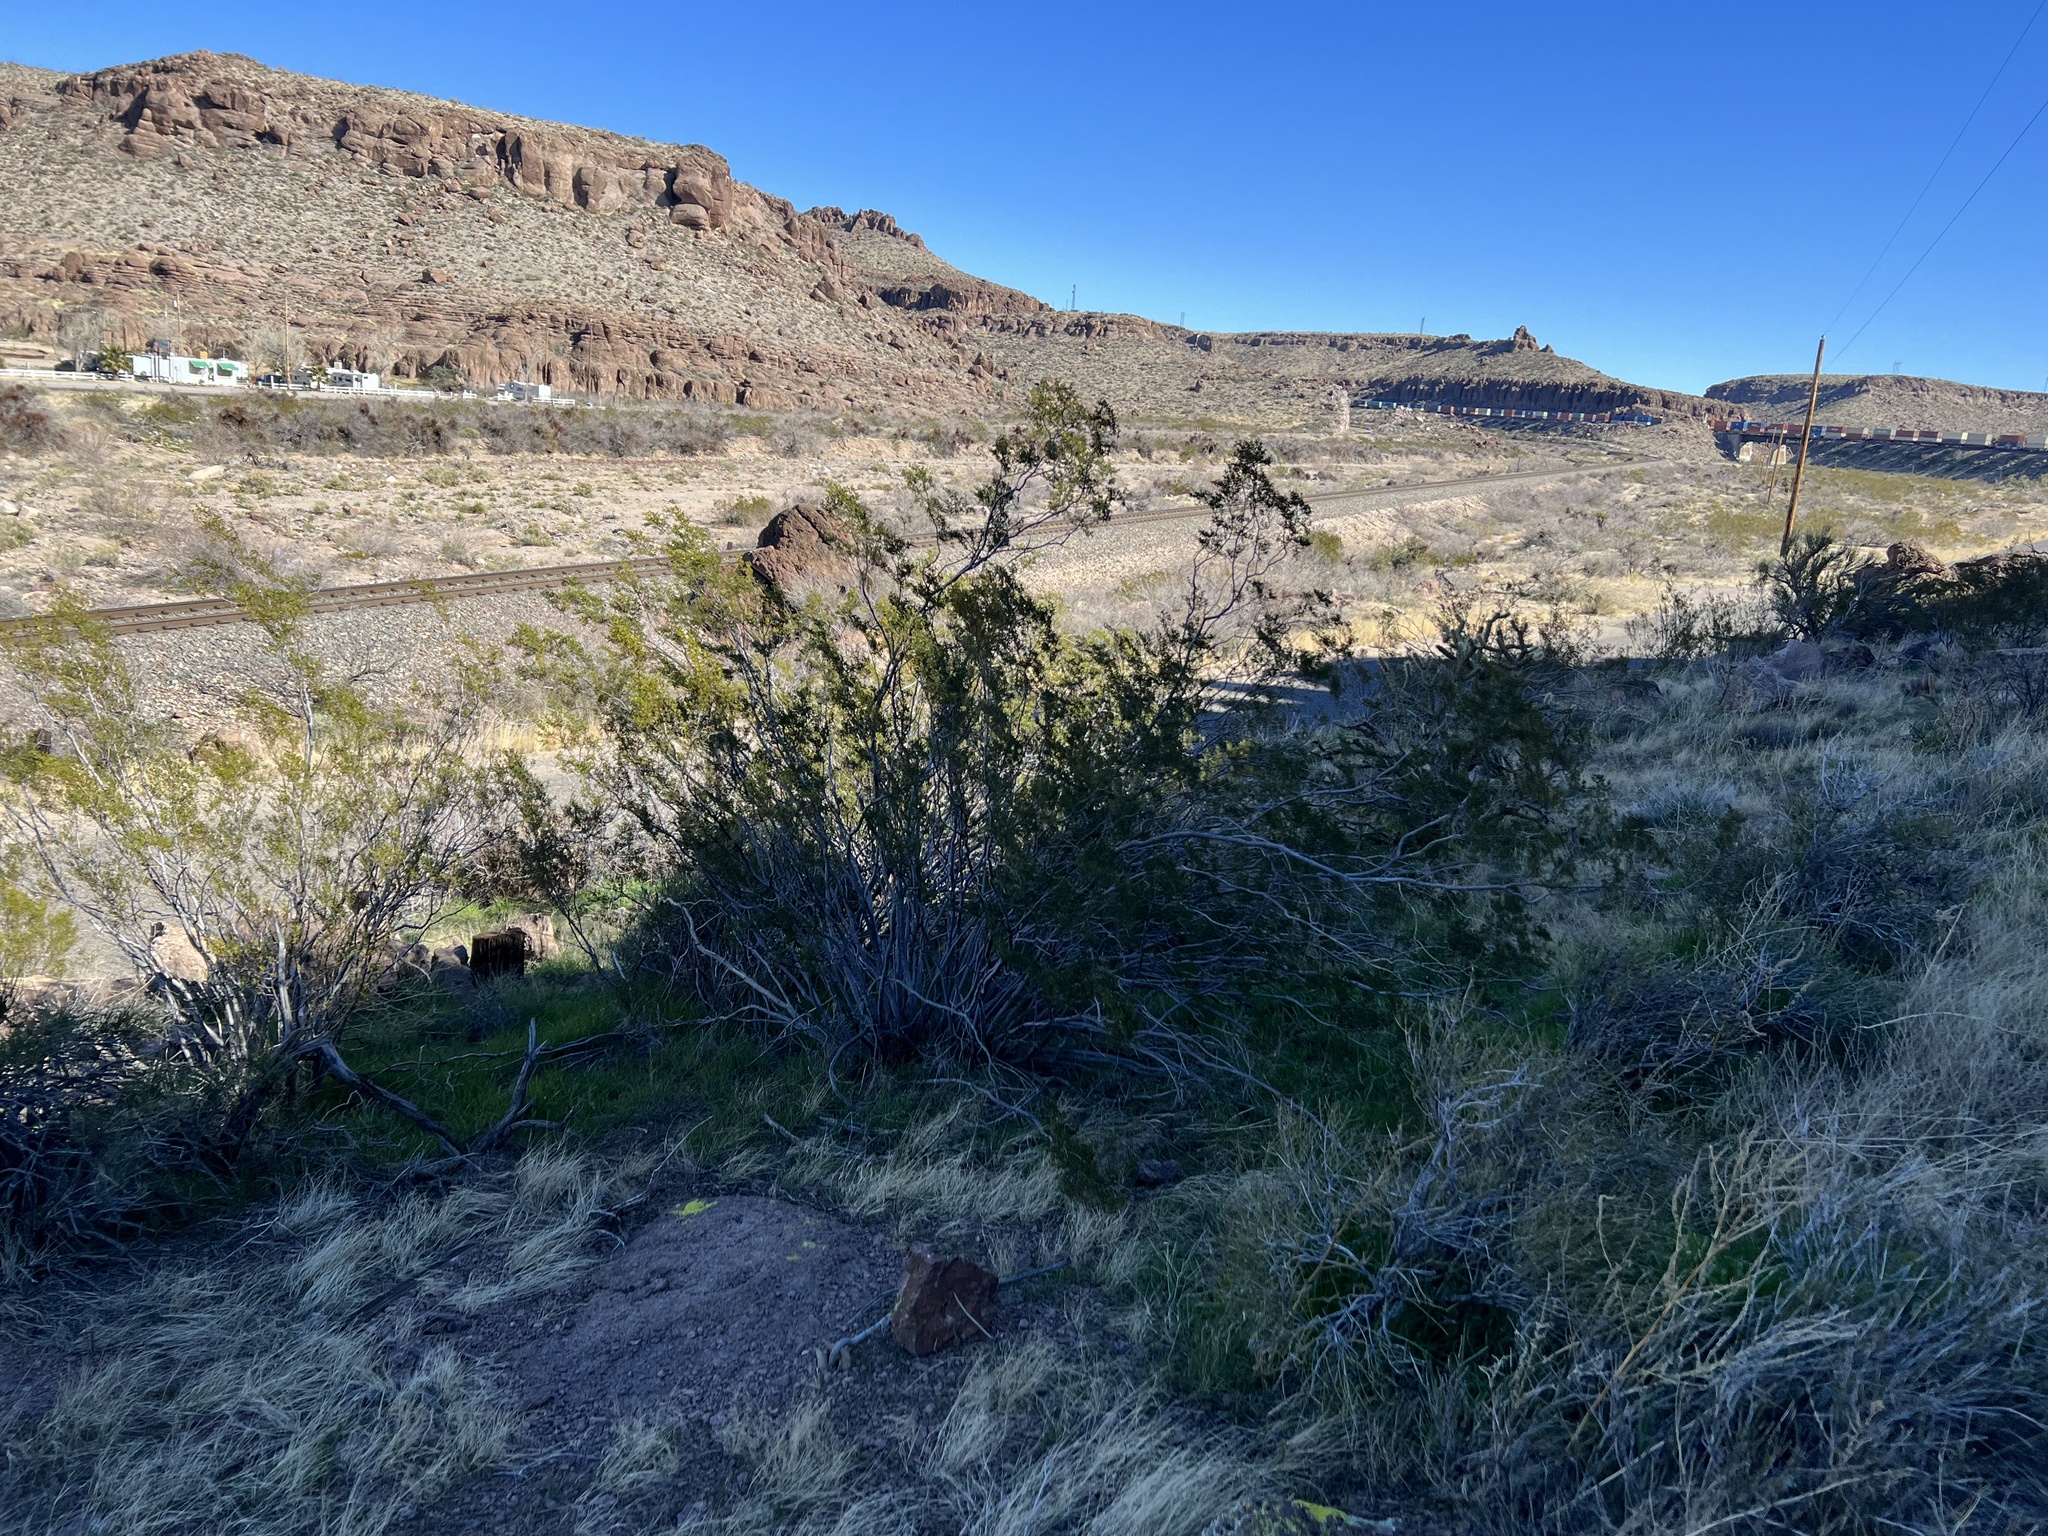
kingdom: Plantae
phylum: Tracheophyta
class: Magnoliopsida
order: Zygophyllales
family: Zygophyllaceae
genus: Larrea
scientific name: Larrea tridentata
